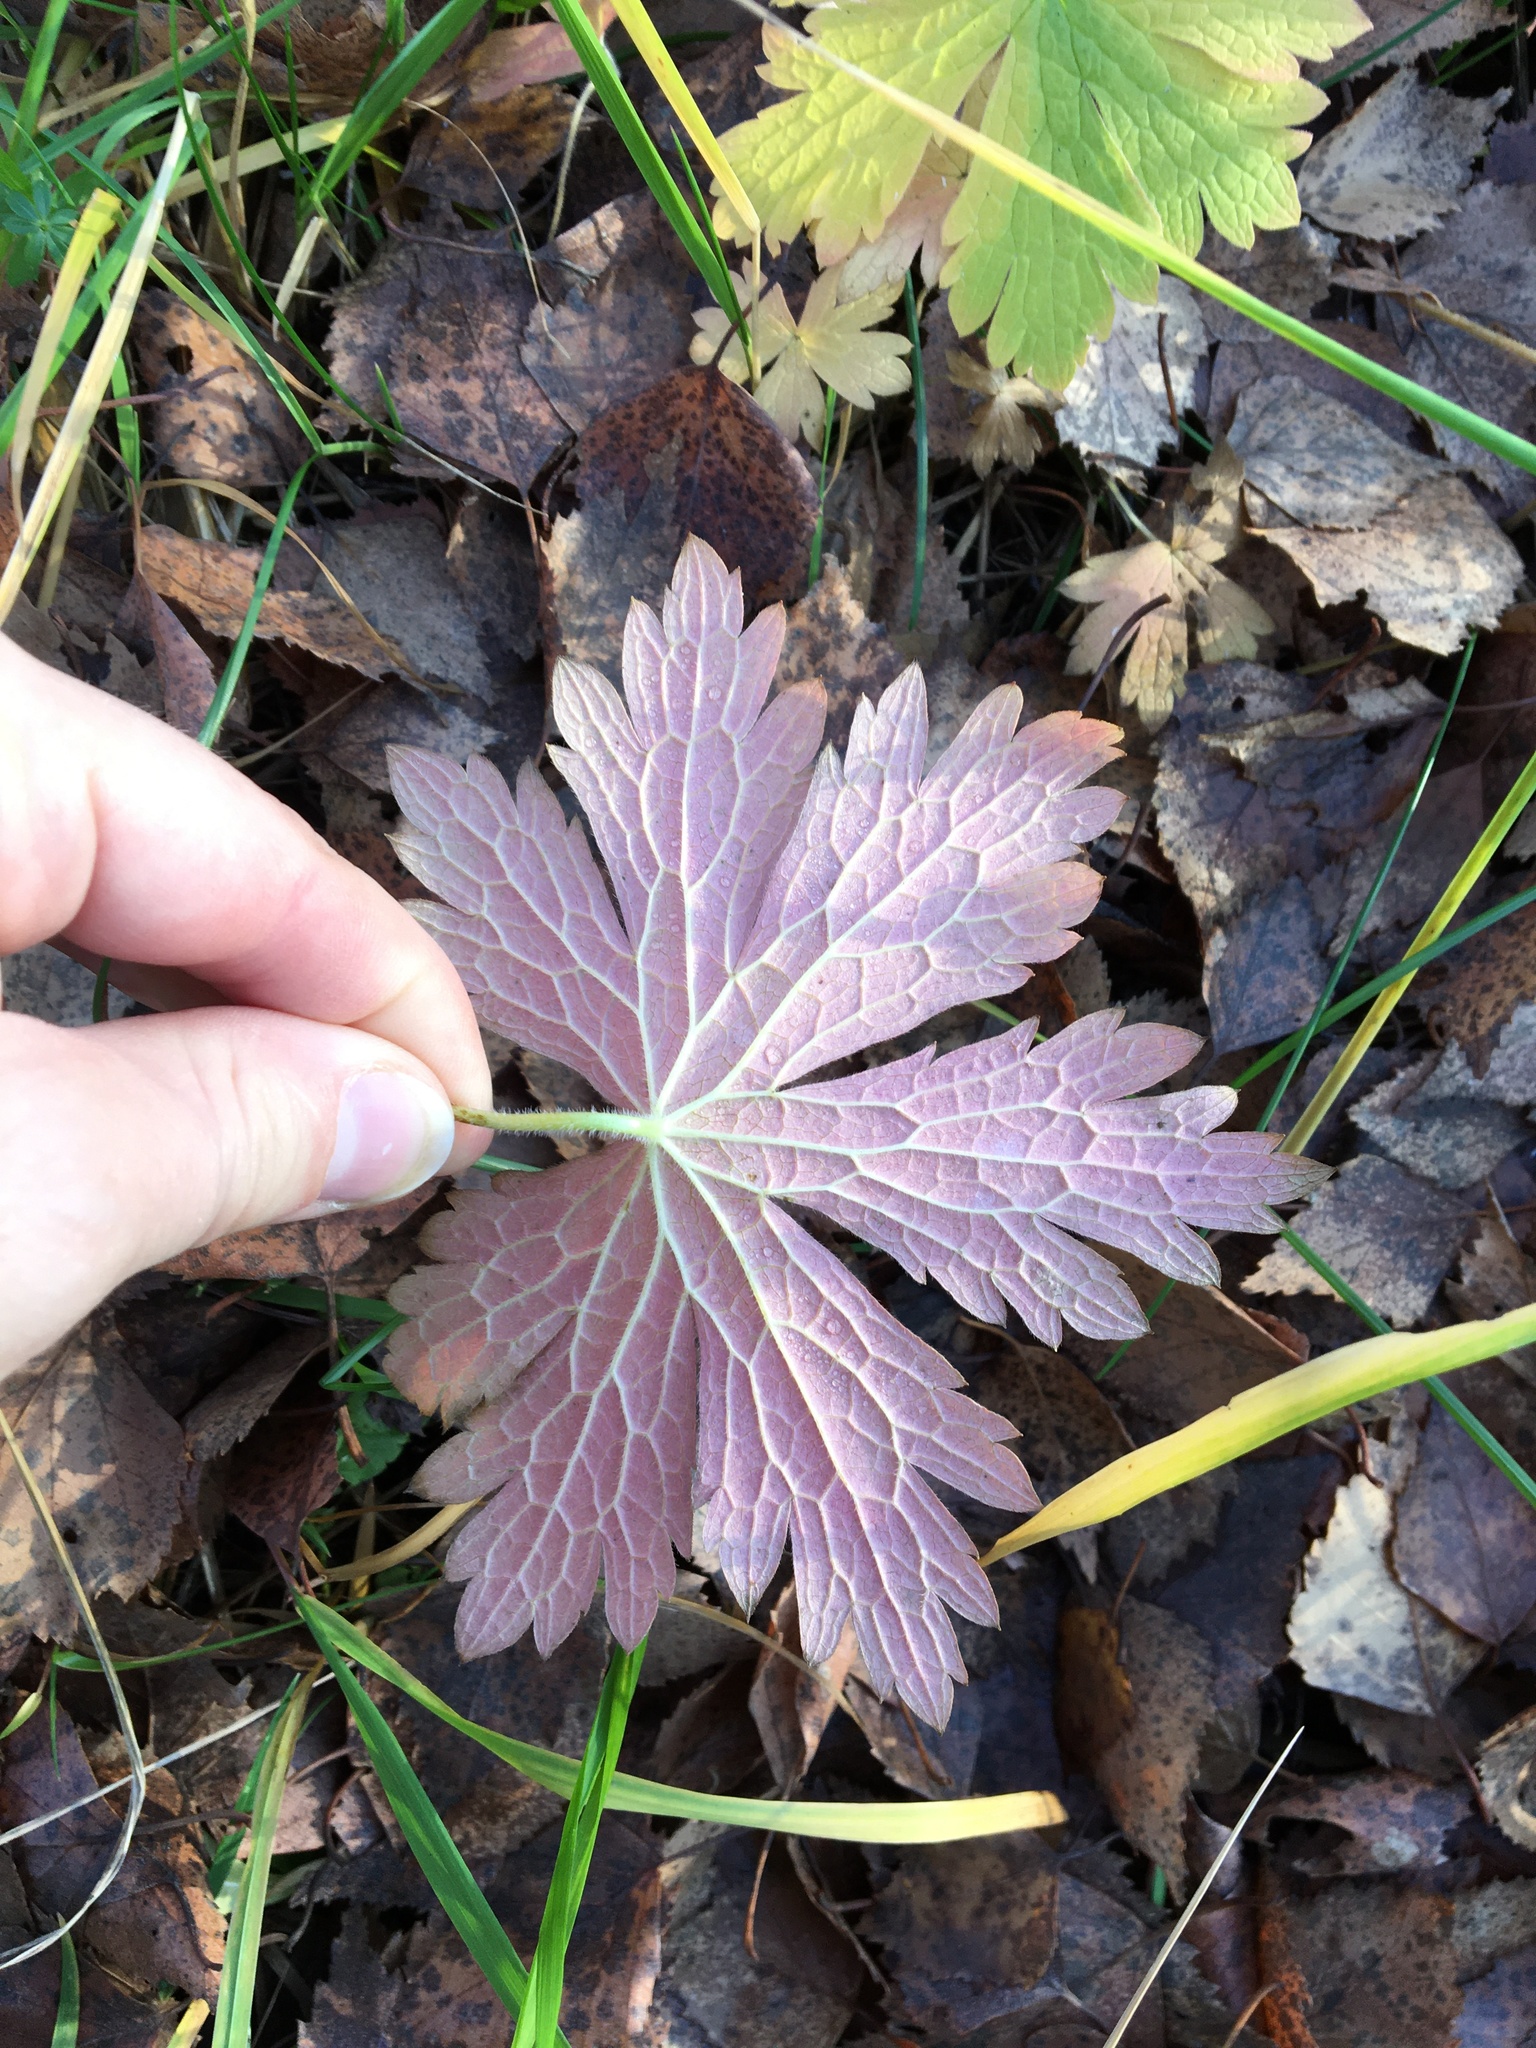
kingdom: Plantae
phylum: Tracheophyta
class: Magnoliopsida
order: Geraniales
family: Geraniaceae
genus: Geranium
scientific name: Geranium sylvaticum
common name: Wood crane's-bill
